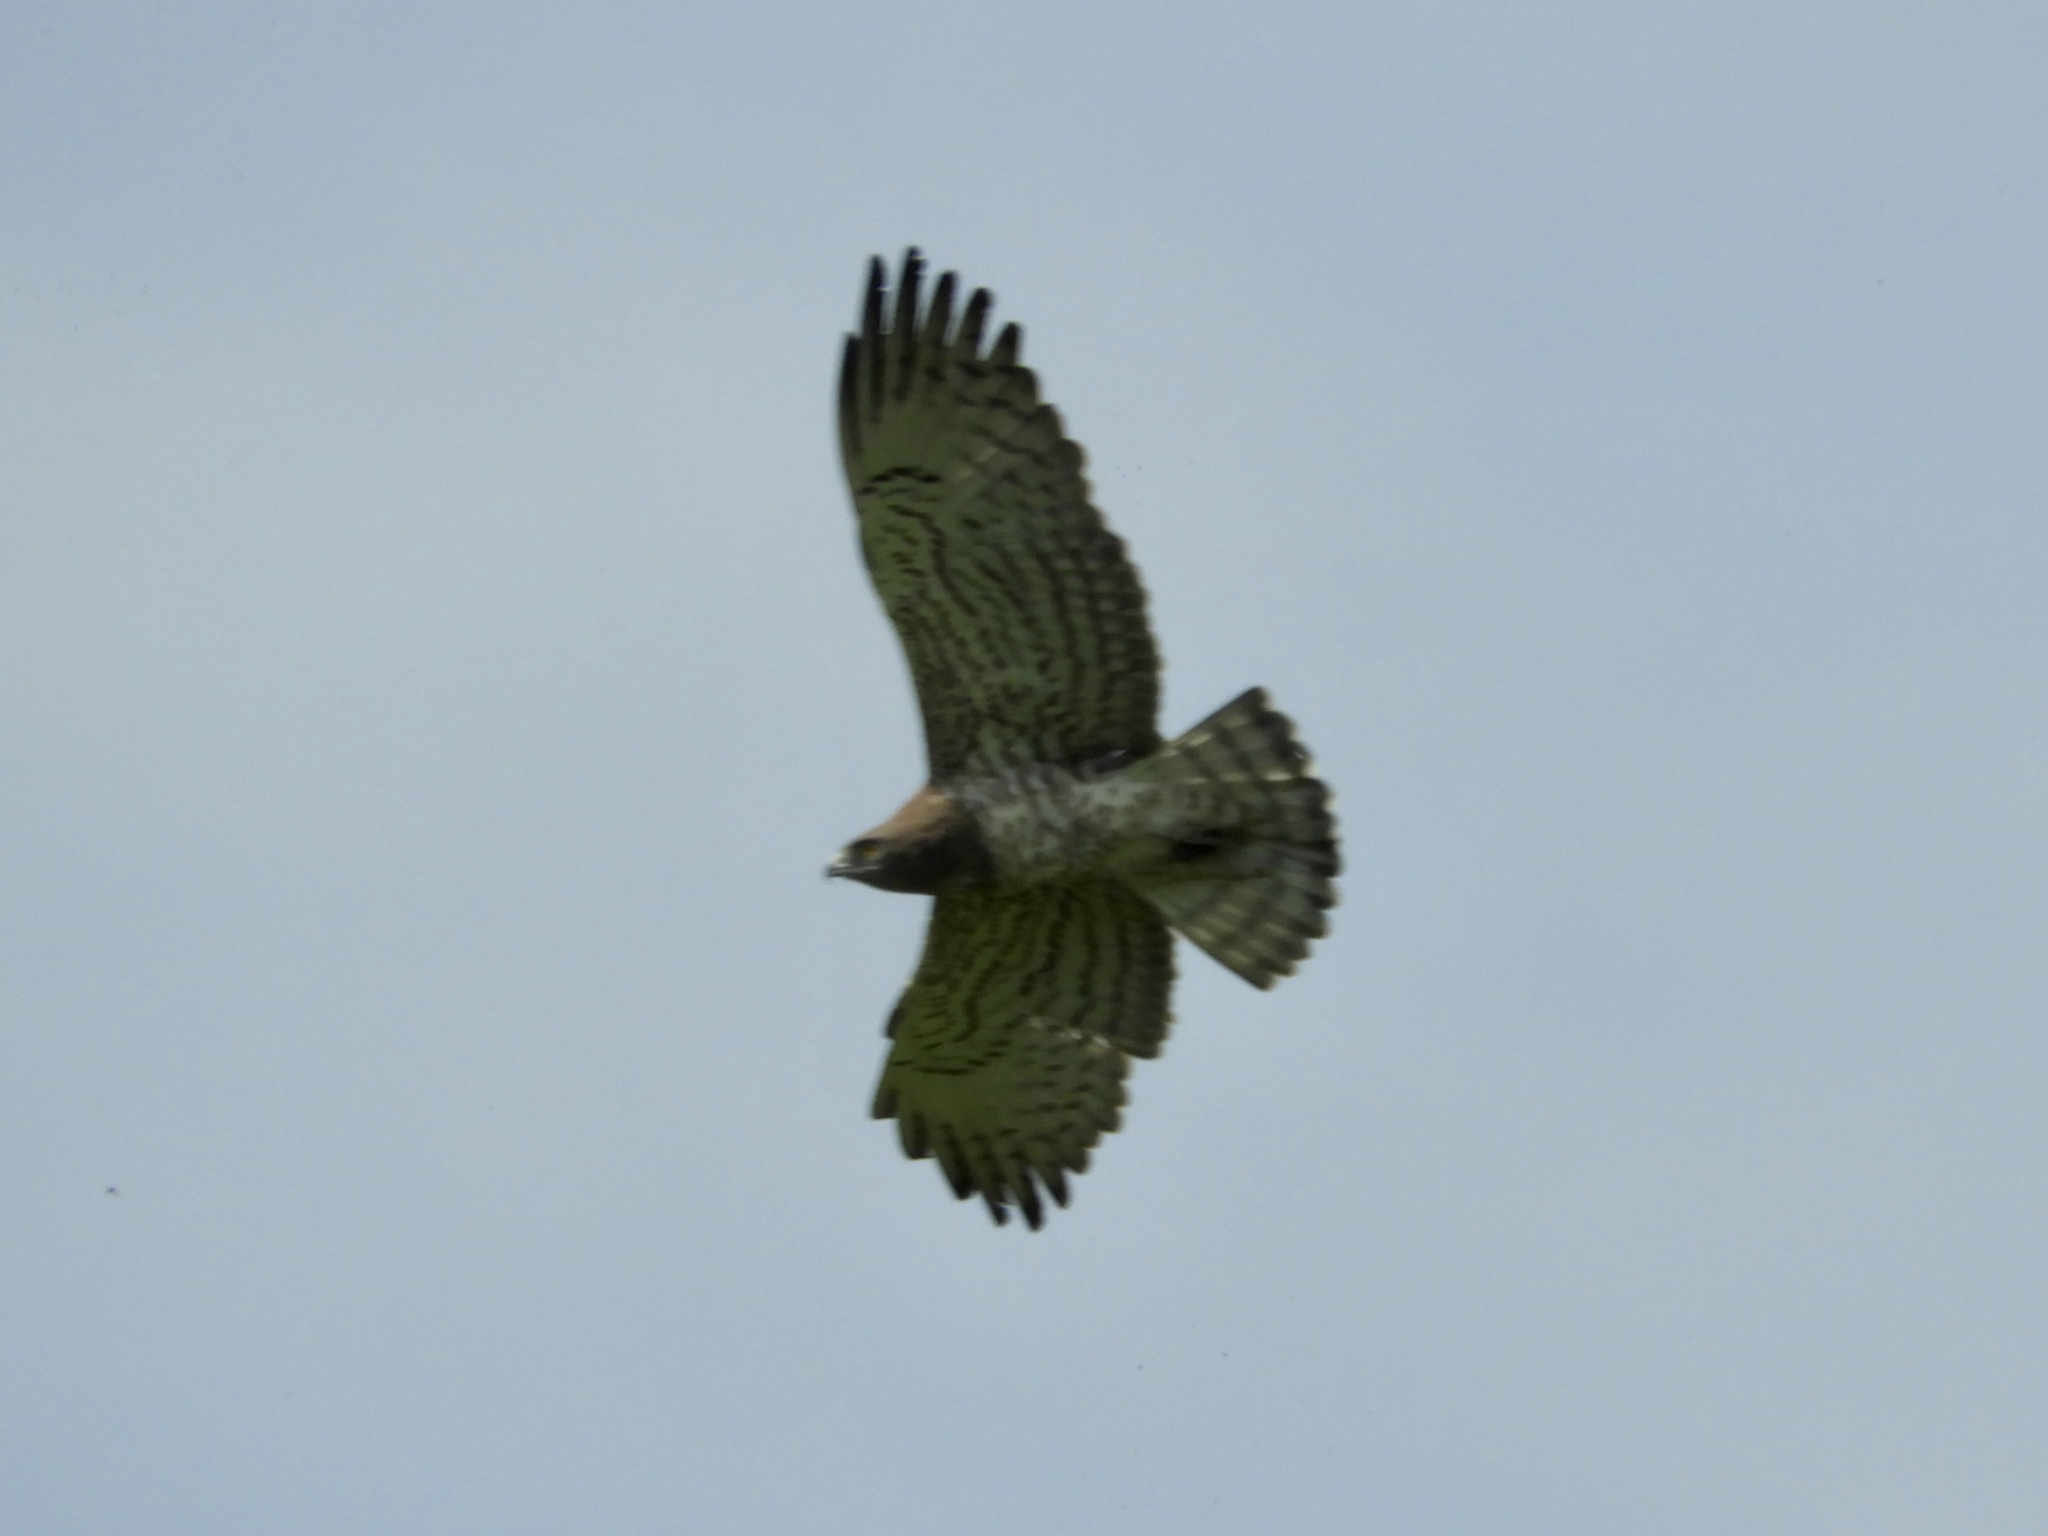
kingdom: Animalia
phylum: Chordata
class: Aves
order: Accipitriformes
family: Accipitridae
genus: Circaetus
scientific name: Circaetus gallicus
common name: Short-toed snake eagle
